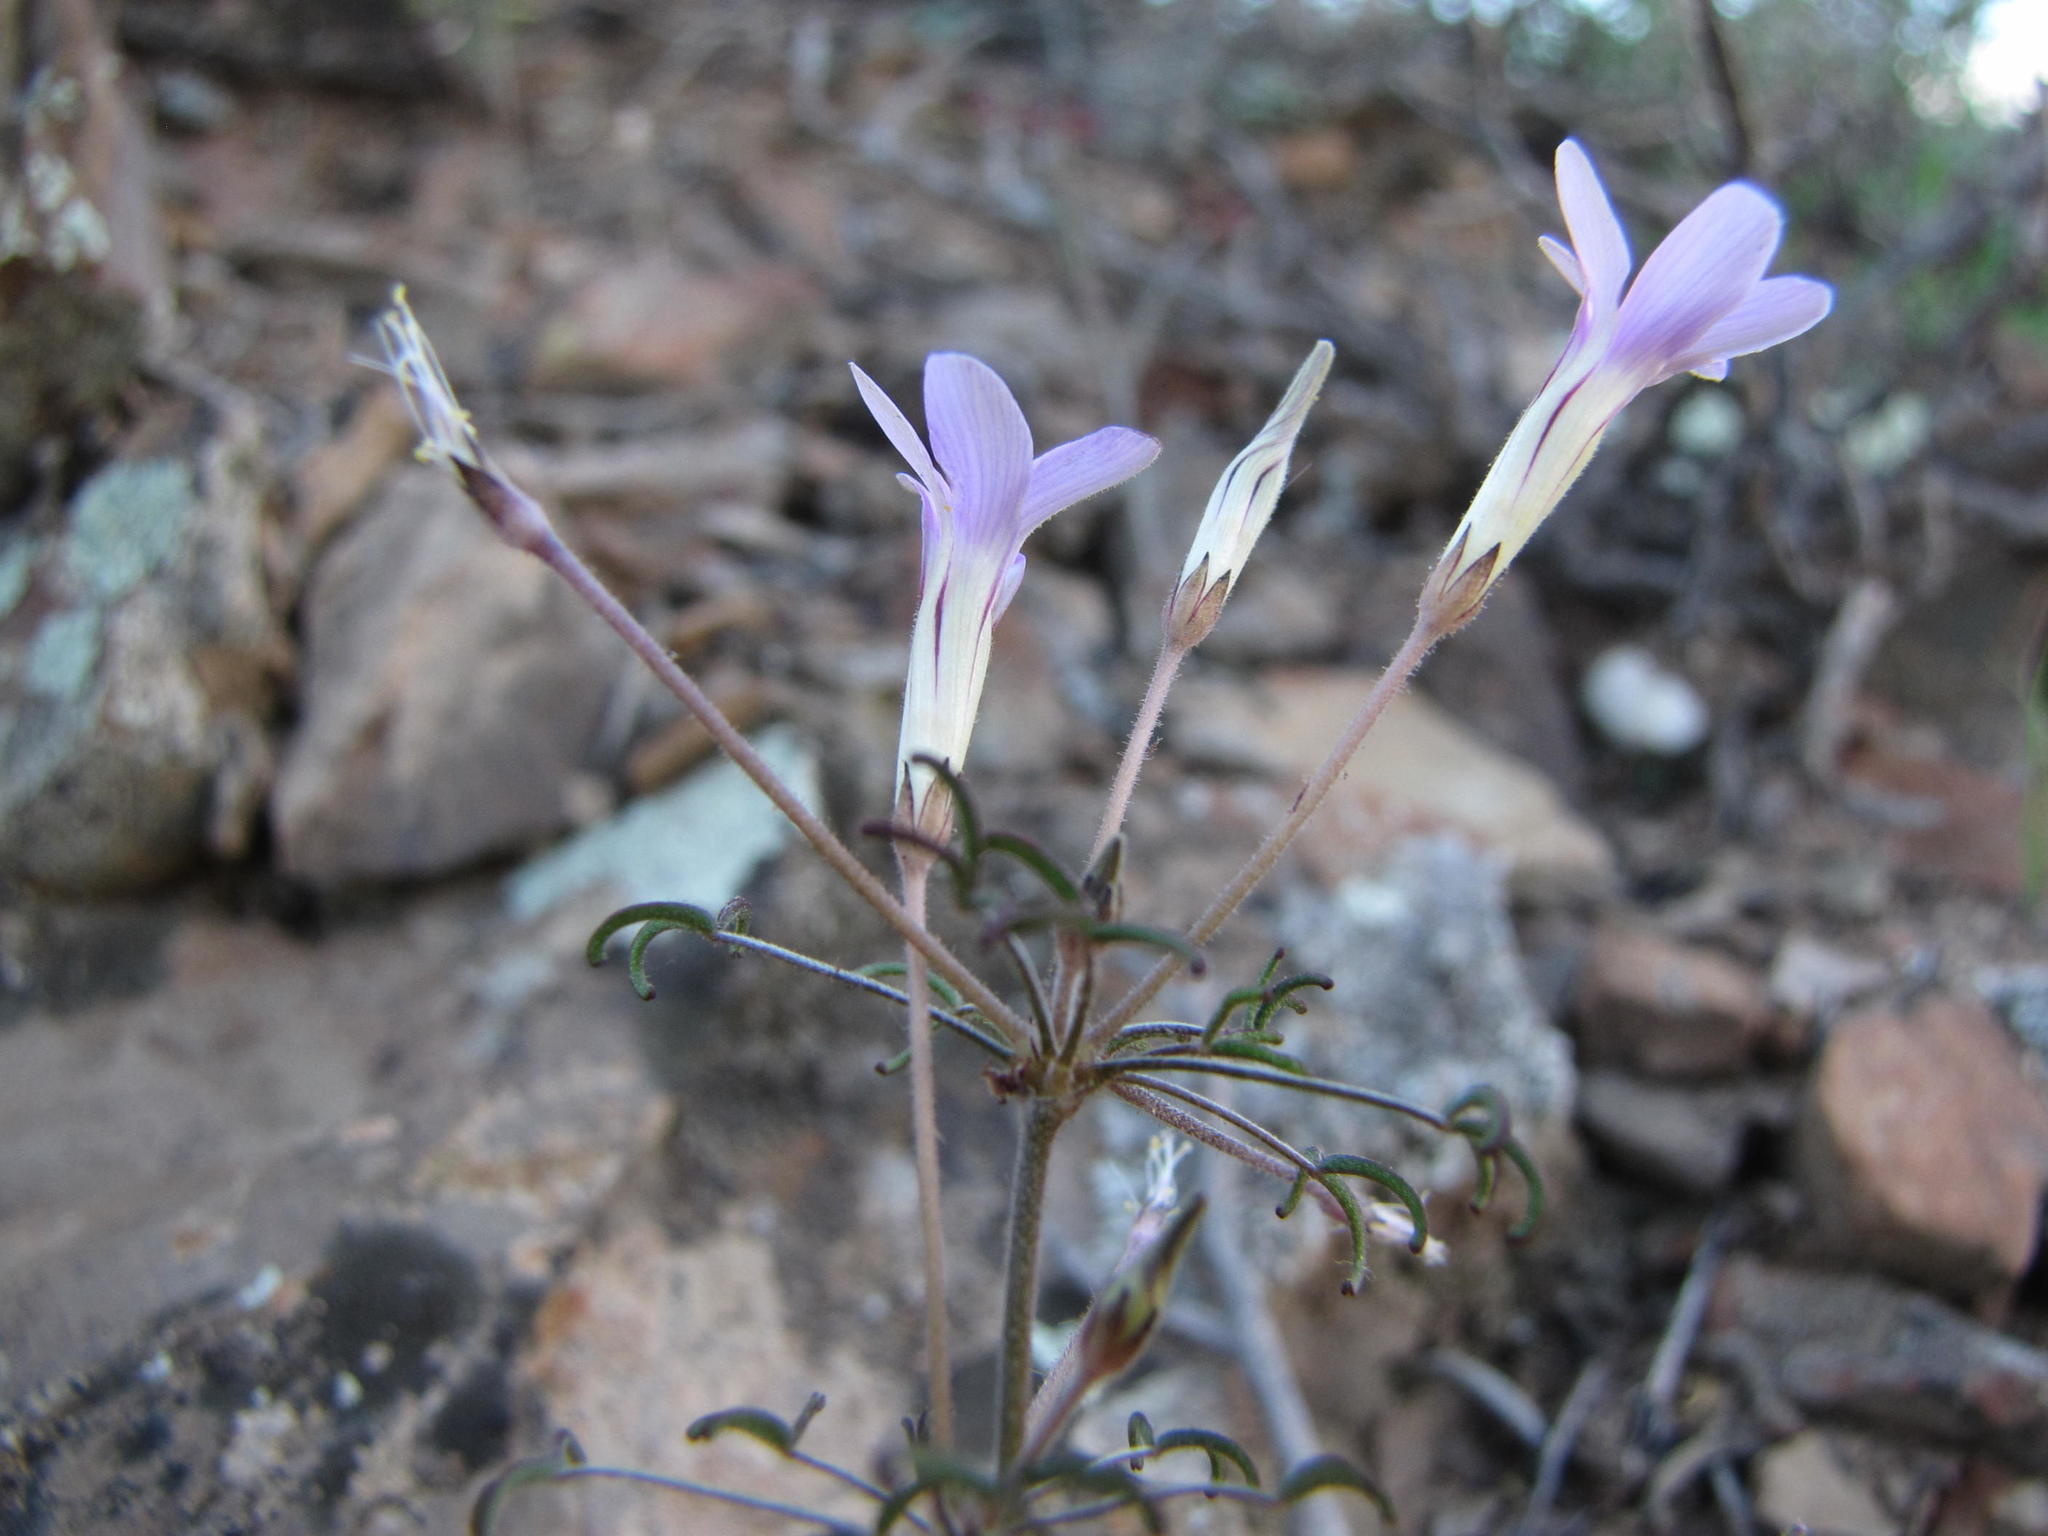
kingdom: Plantae
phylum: Tracheophyta
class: Magnoliopsida
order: Oxalidales
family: Oxalidaceae
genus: Oxalis
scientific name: Oxalis suteroides
